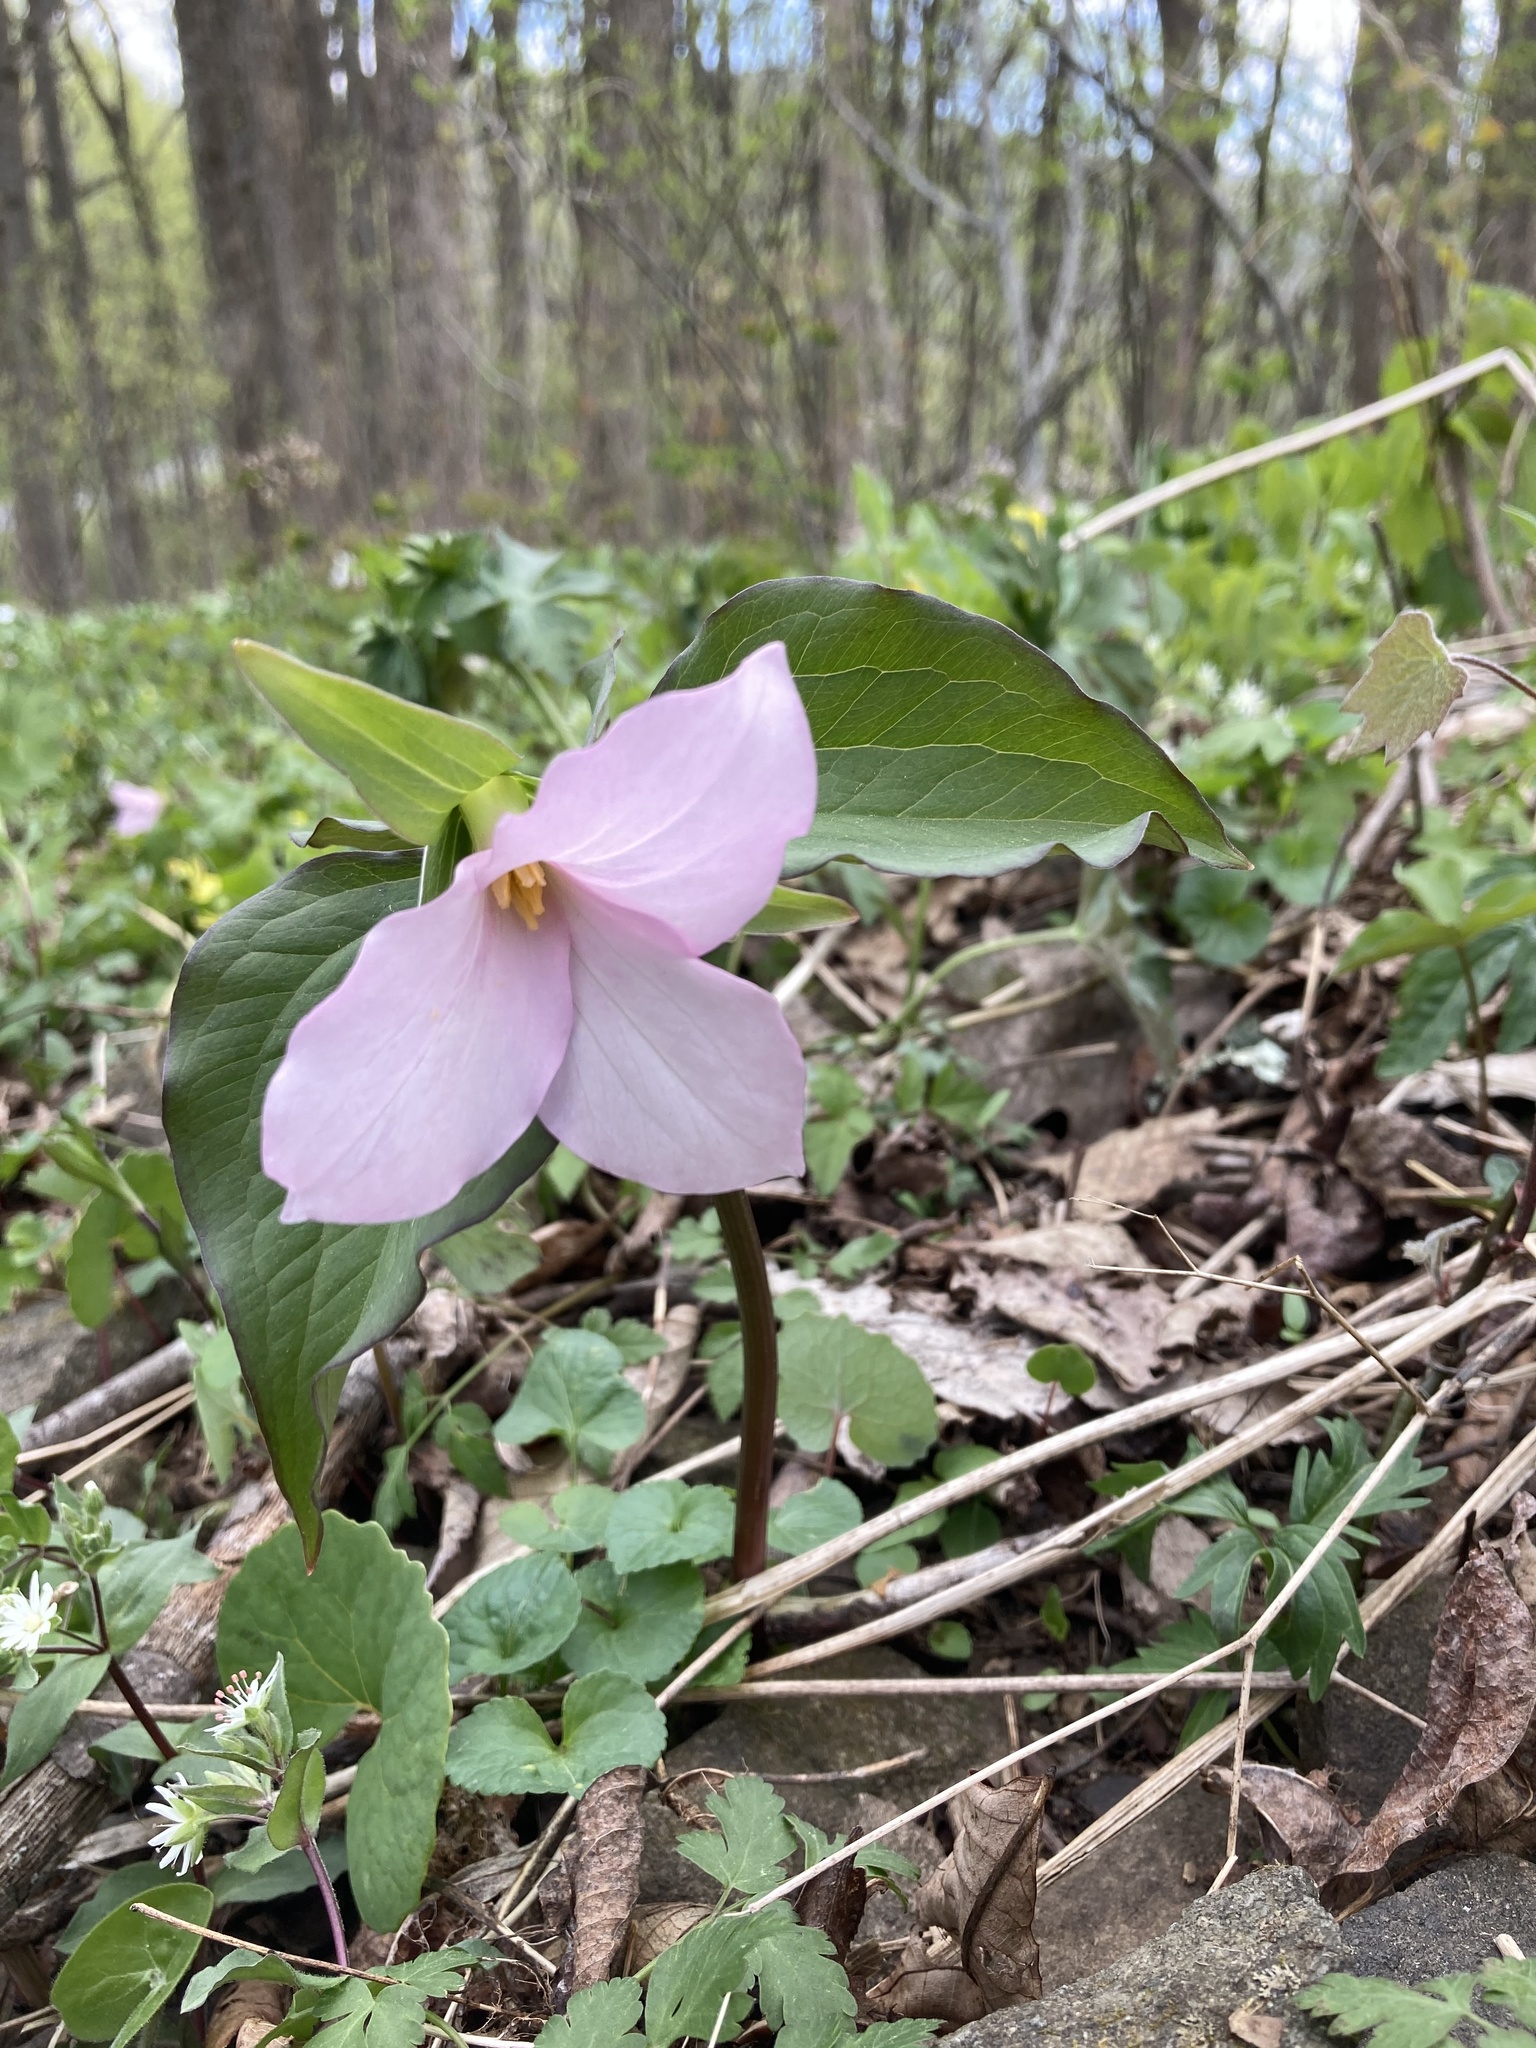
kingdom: Plantae
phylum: Tracheophyta
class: Liliopsida
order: Liliales
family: Melanthiaceae
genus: Trillium
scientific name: Trillium grandiflorum
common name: Great white trillium
